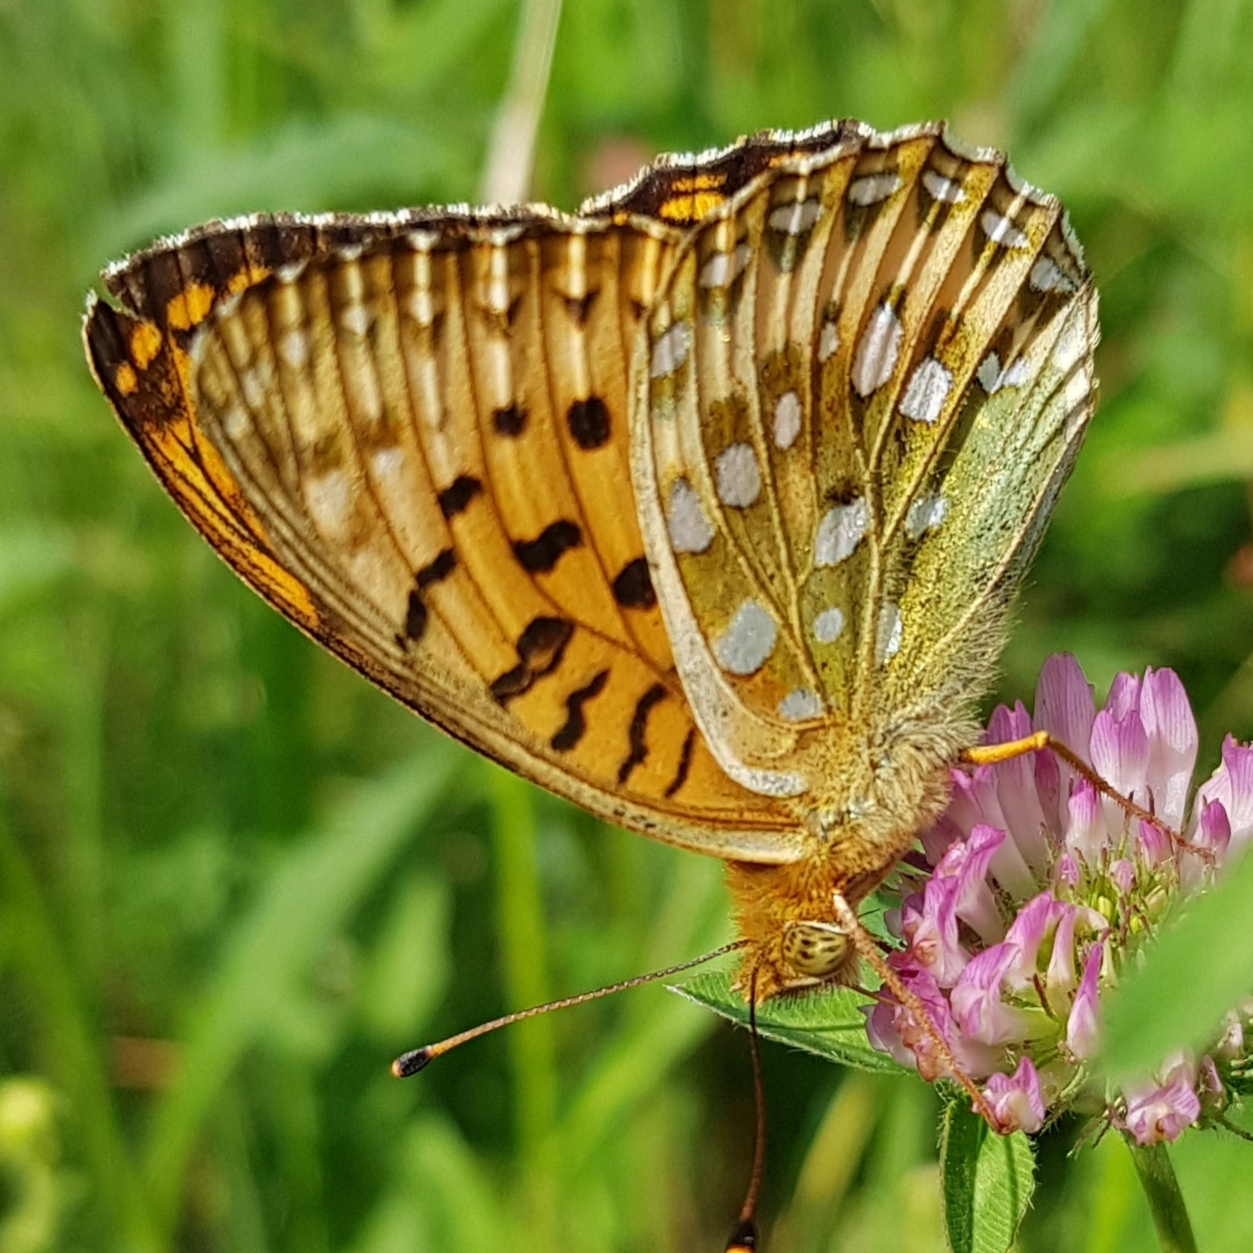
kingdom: Animalia
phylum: Arthropoda
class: Insecta
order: Lepidoptera
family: Nymphalidae
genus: Speyeria
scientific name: Speyeria aglaja
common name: Dark green fritillary
